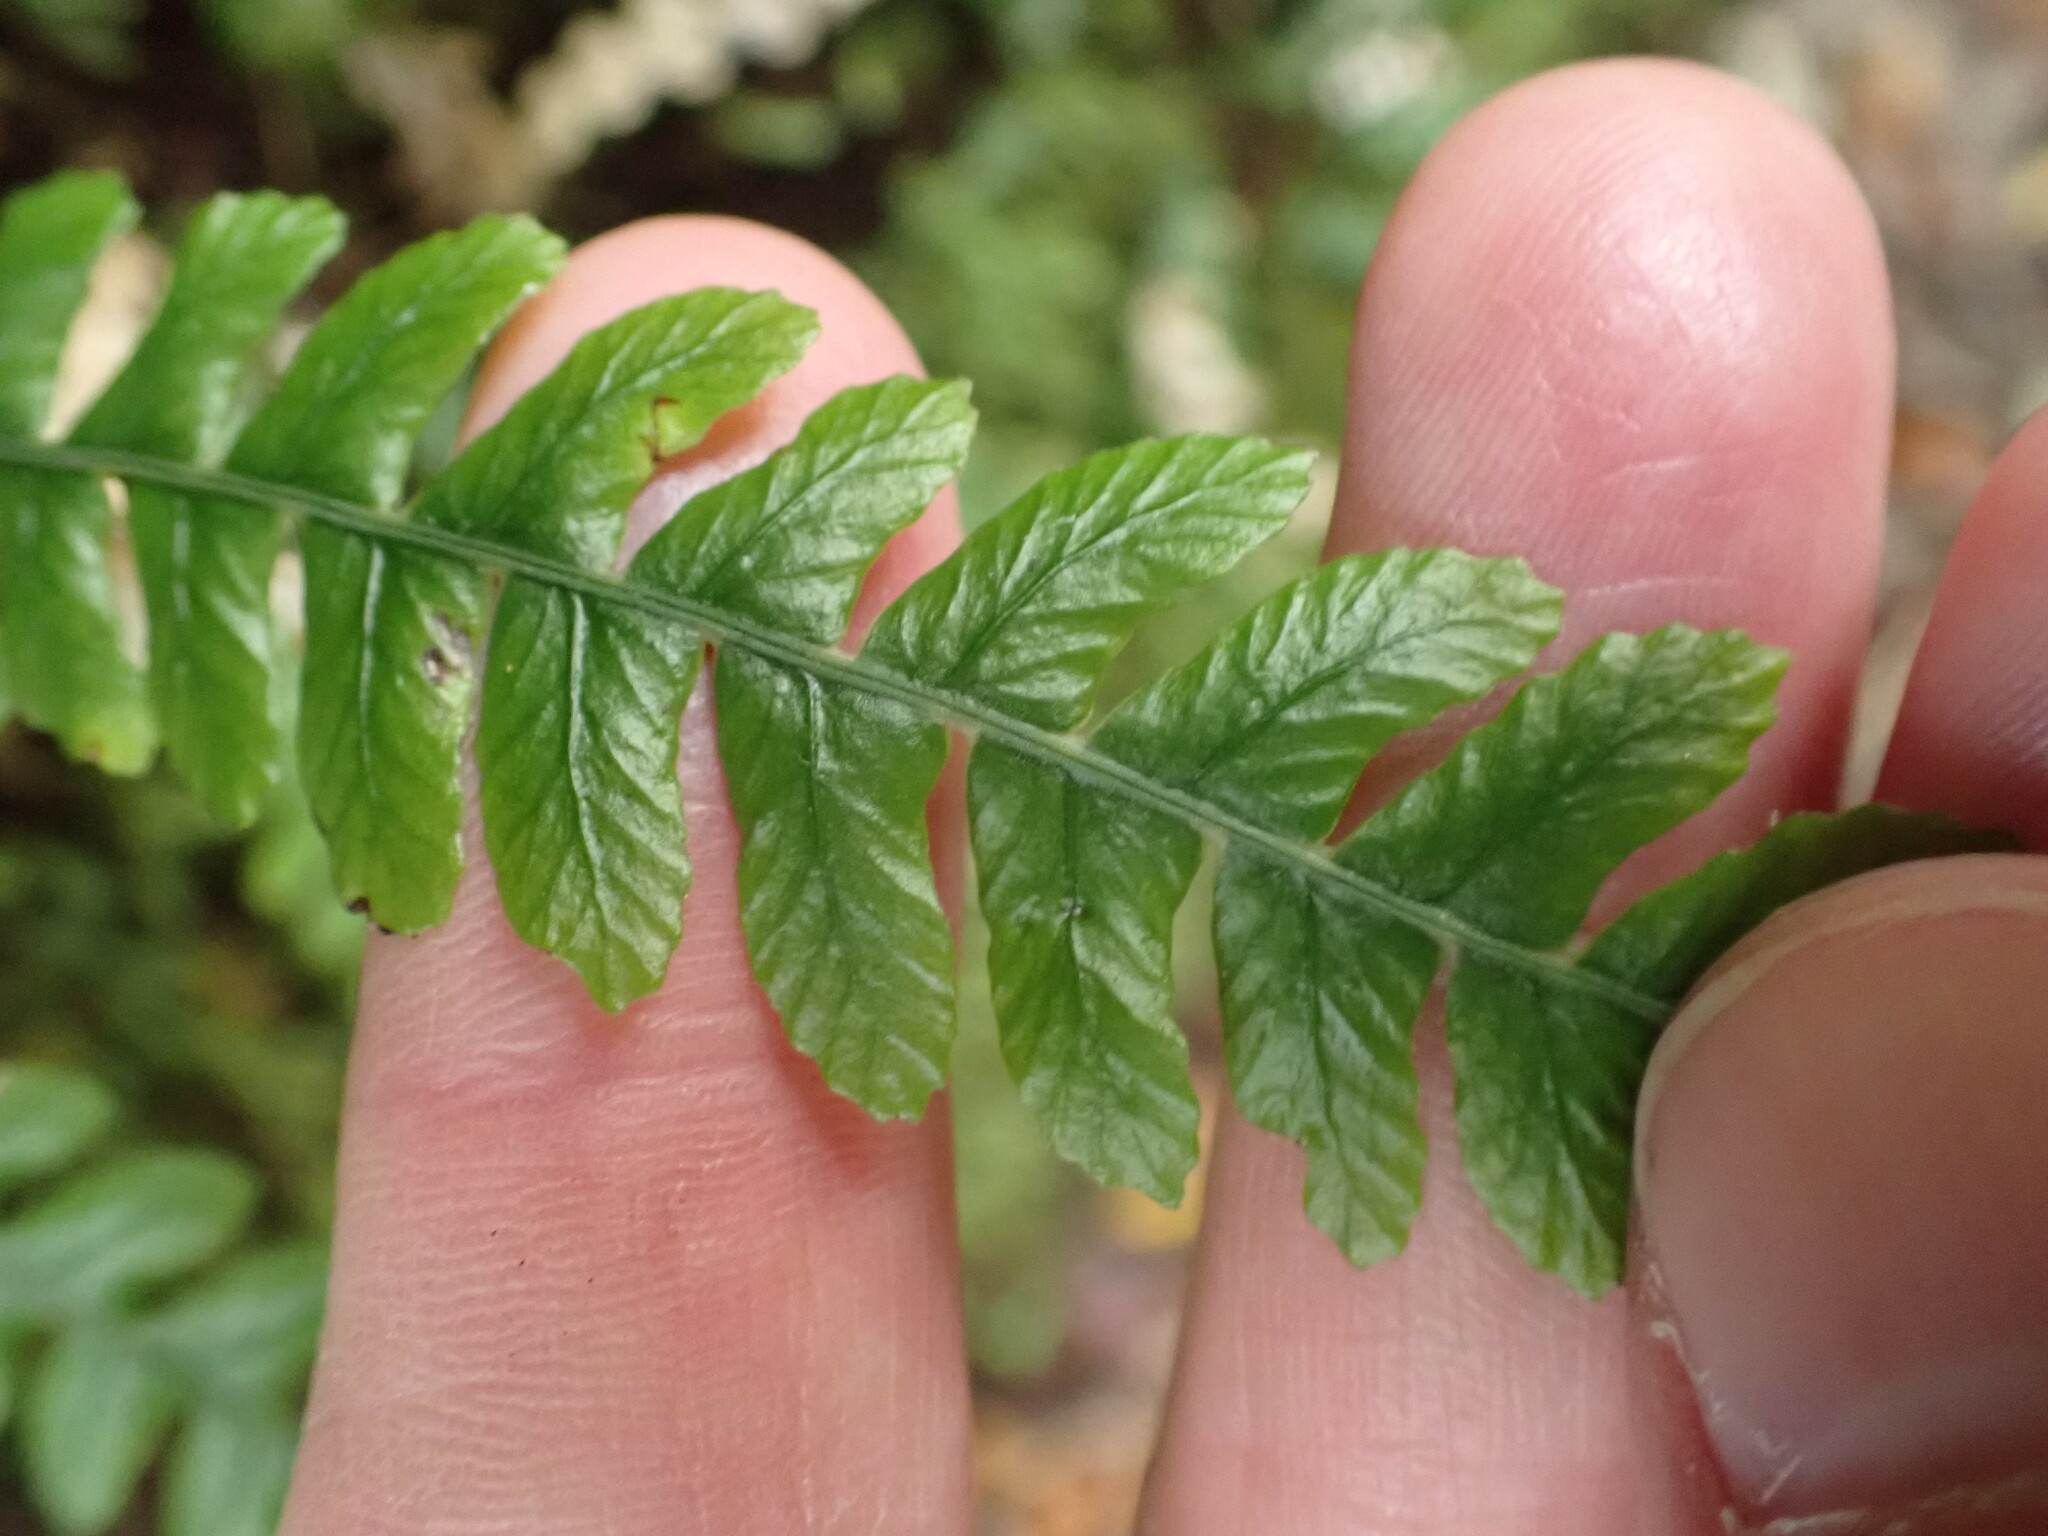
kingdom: Plantae
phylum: Tracheophyta
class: Polypodiopsida
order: Polypodiales
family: Blechnaceae
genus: Austroblechnum
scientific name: Austroblechnum lanceolatum
